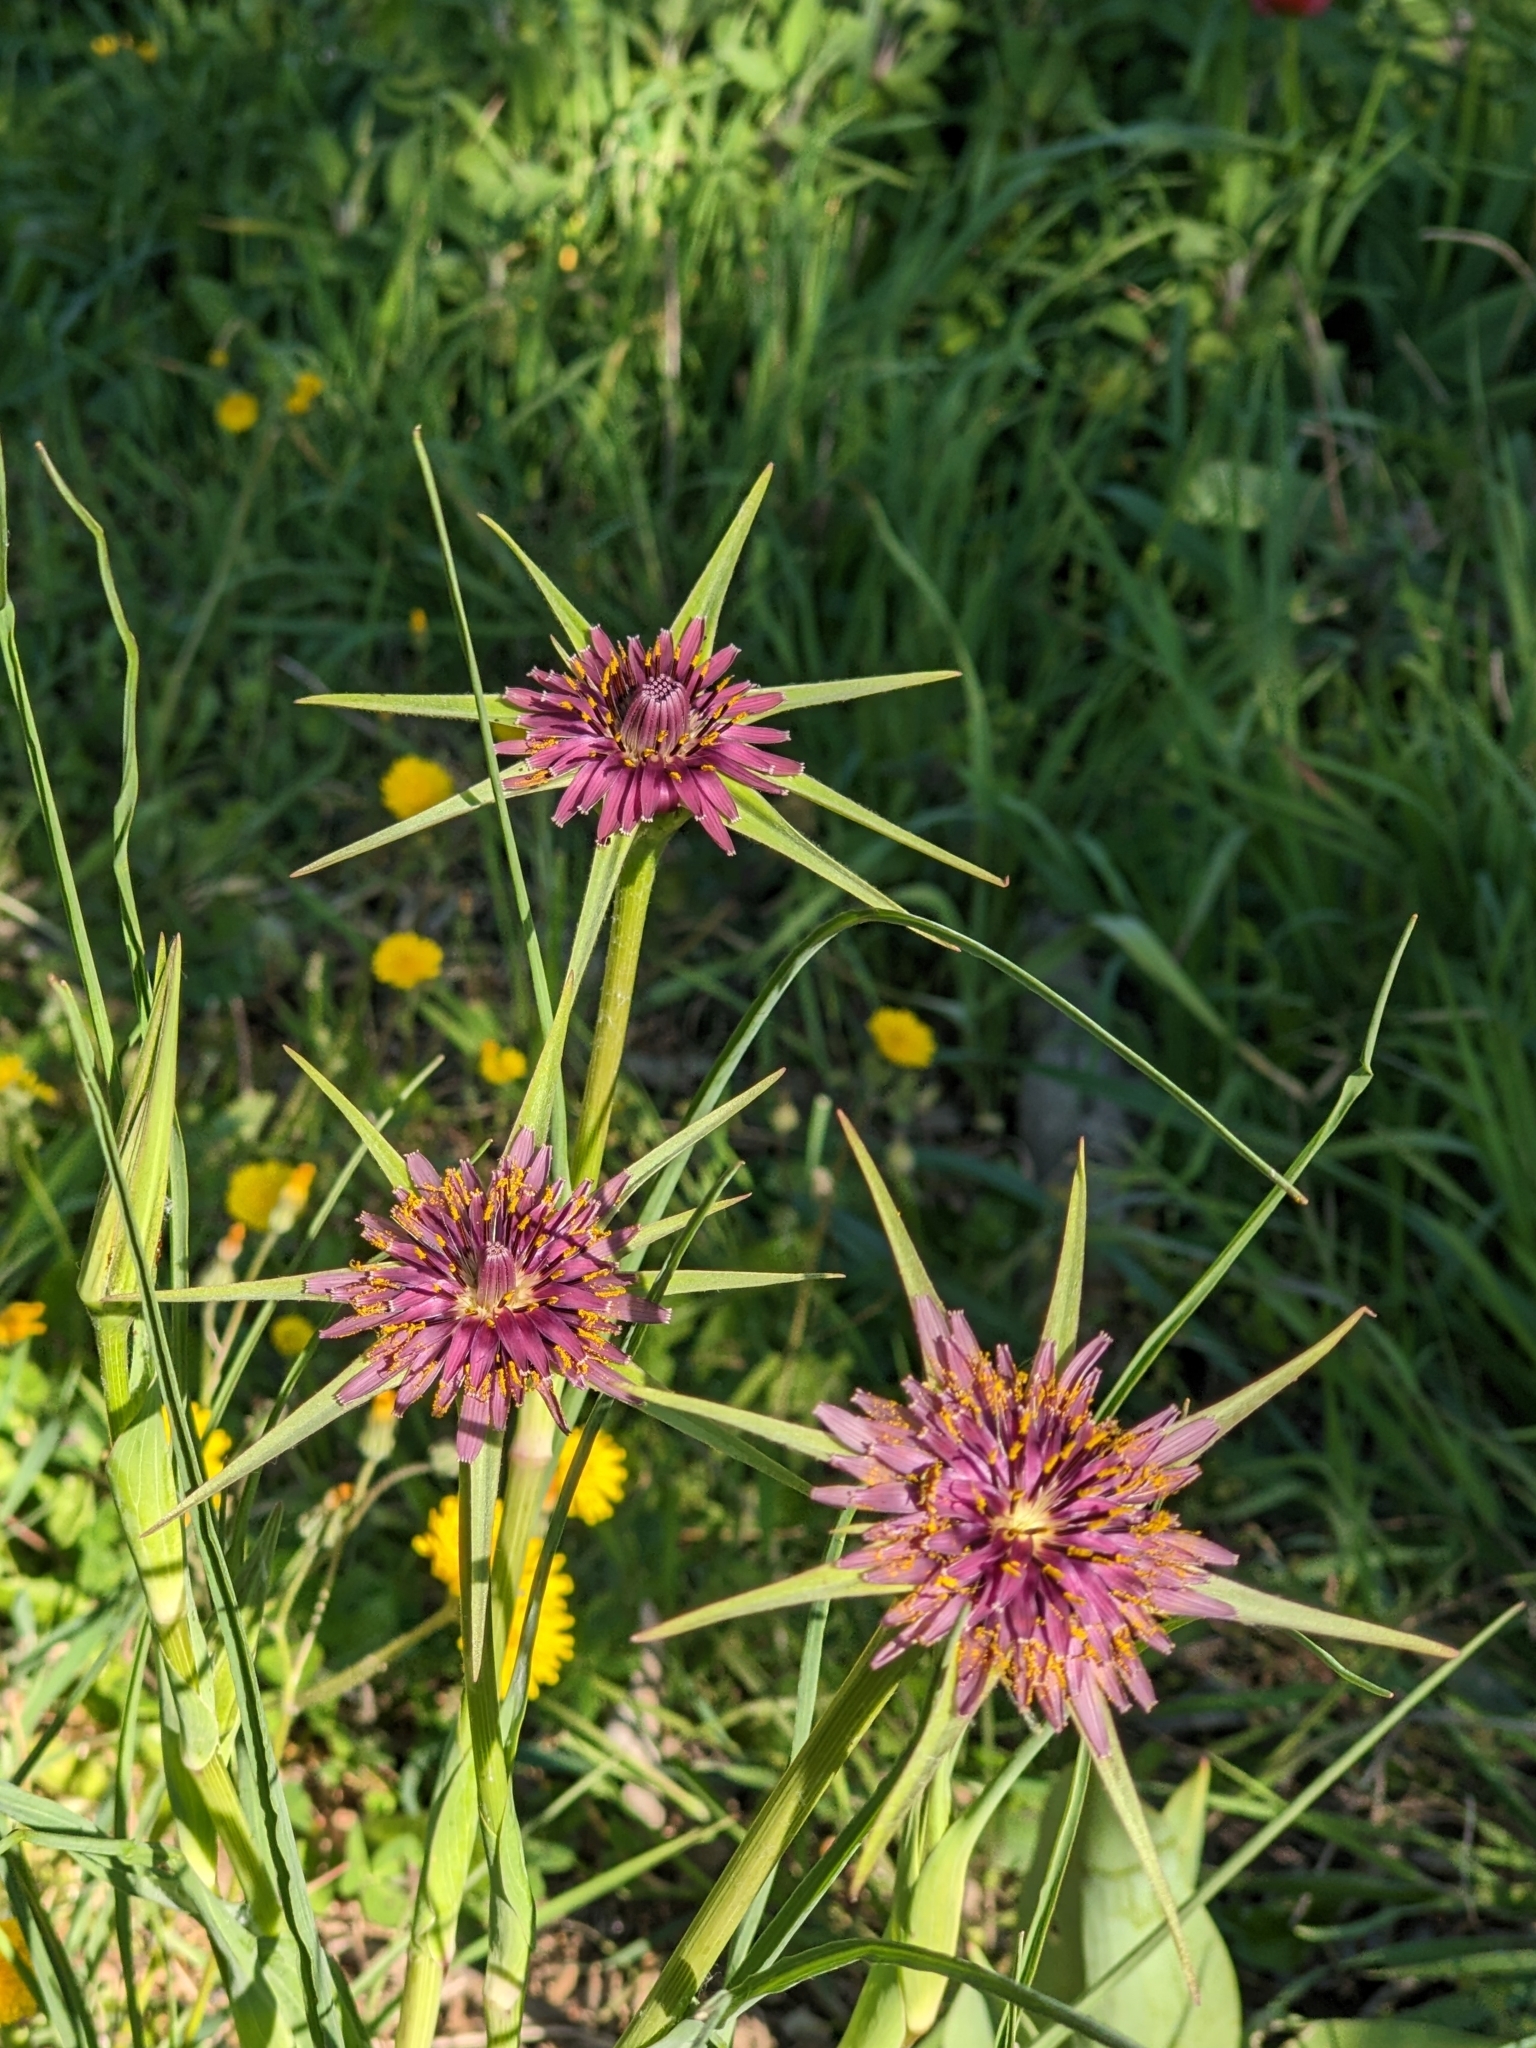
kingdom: Plantae
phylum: Tracheophyta
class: Magnoliopsida
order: Asterales
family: Asteraceae
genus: Tragopogon
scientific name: Tragopogon porrifolius
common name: Salsify
